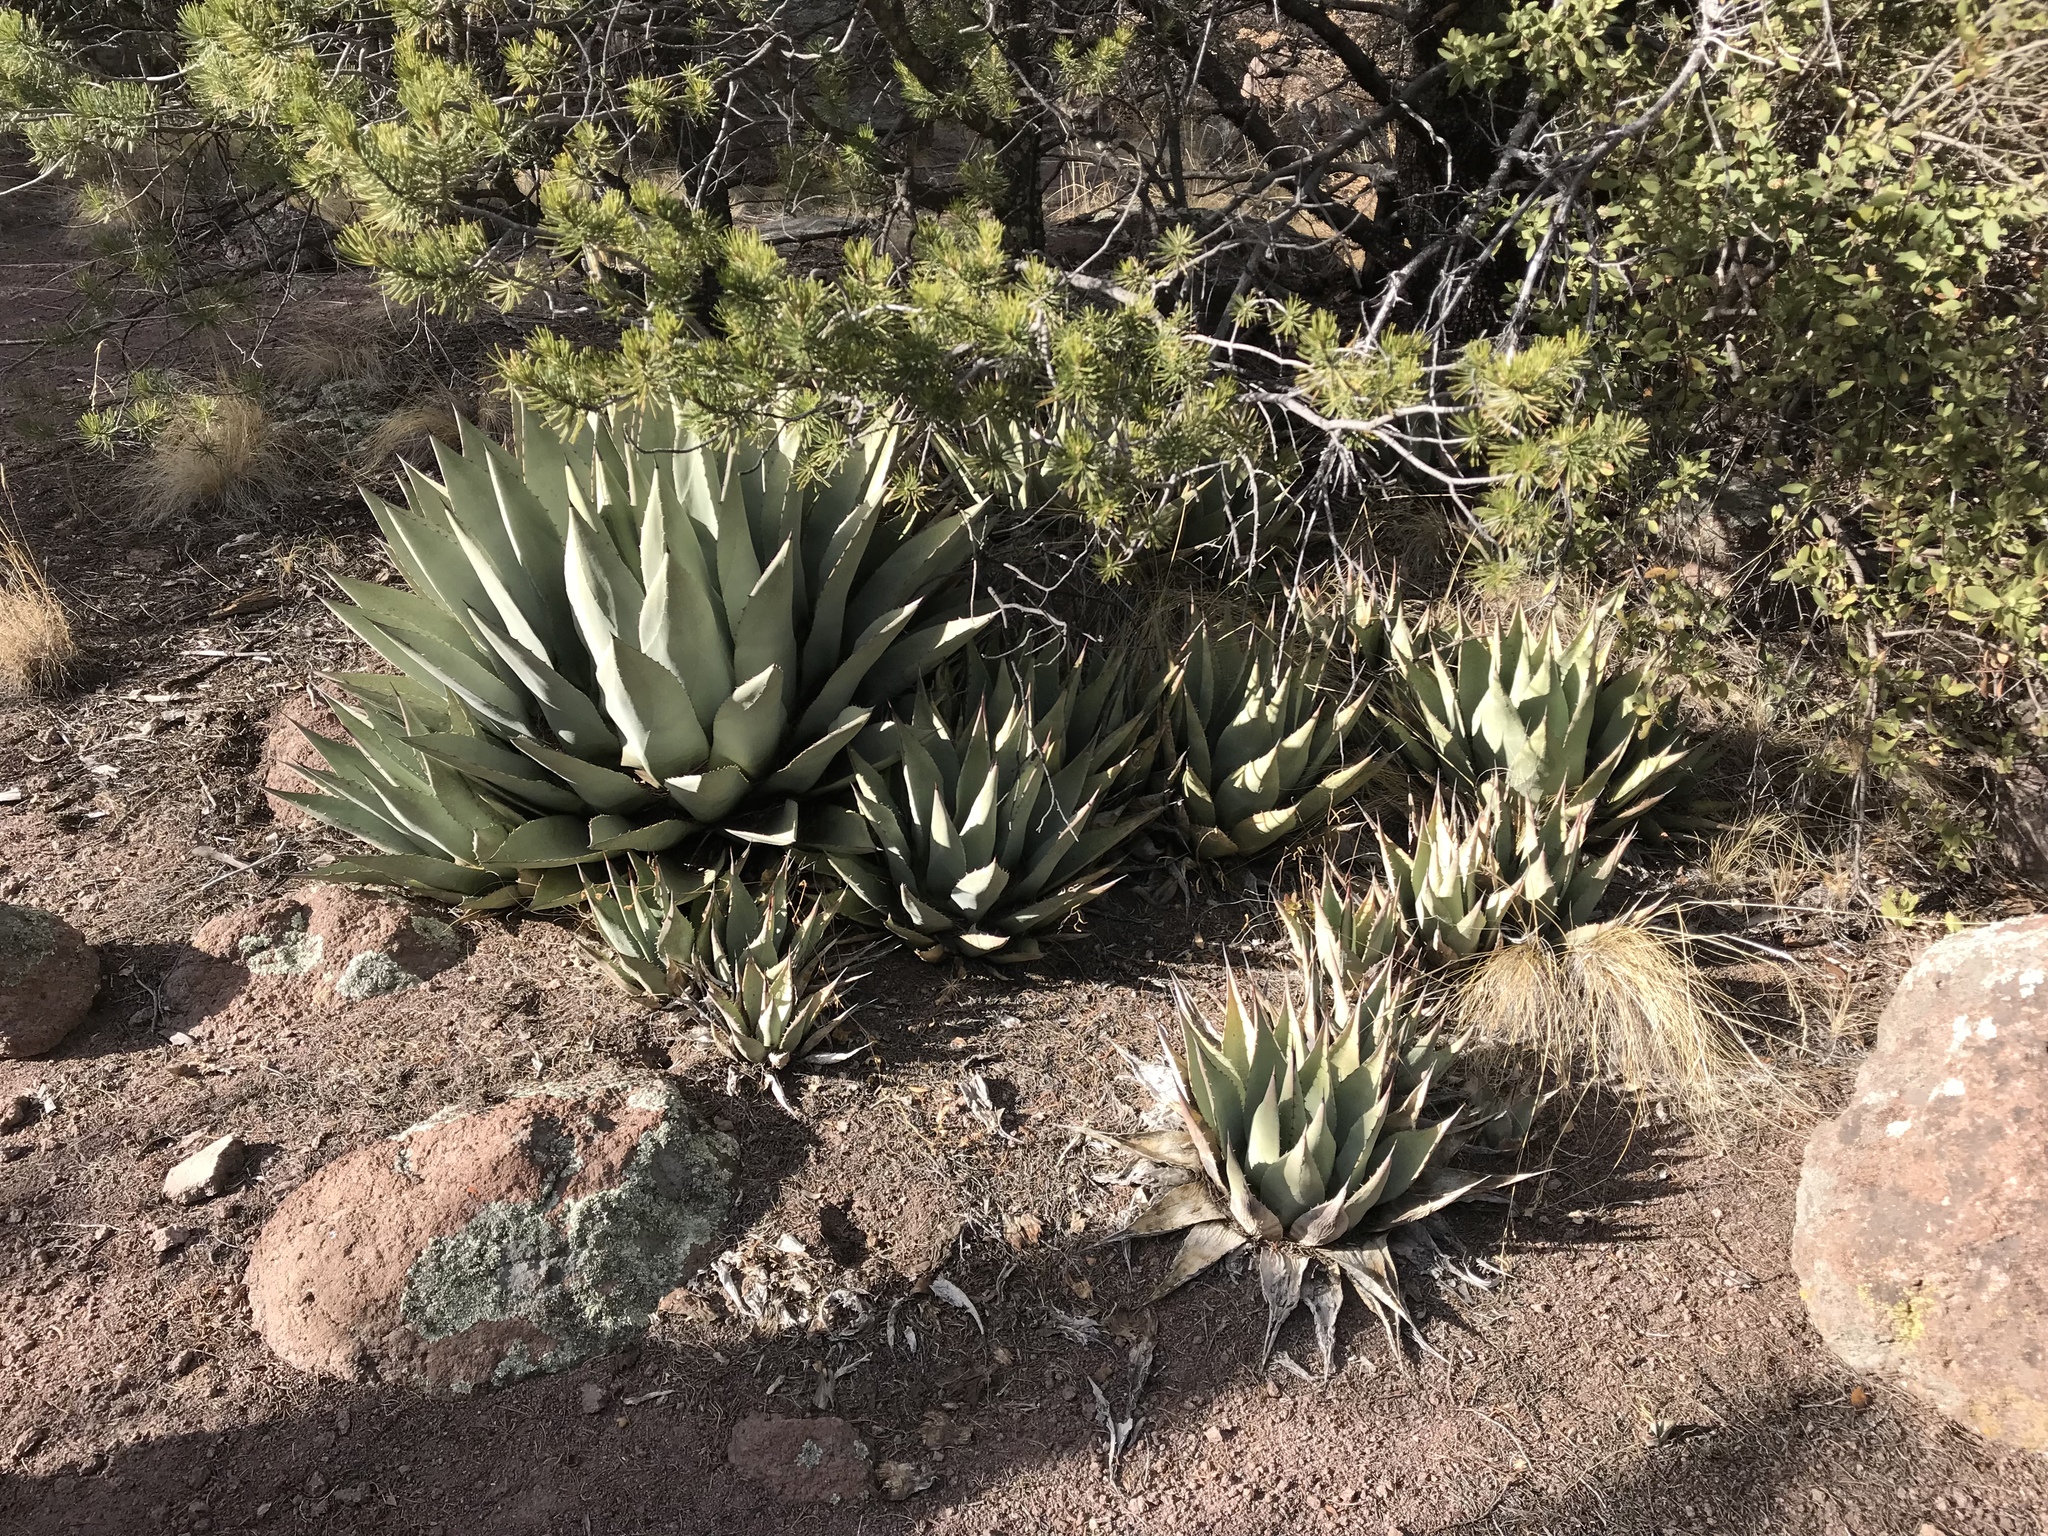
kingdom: Plantae
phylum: Tracheophyta
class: Liliopsida
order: Asparagales
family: Asparagaceae
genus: Agave
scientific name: Agave parryi
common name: Parry's agave
